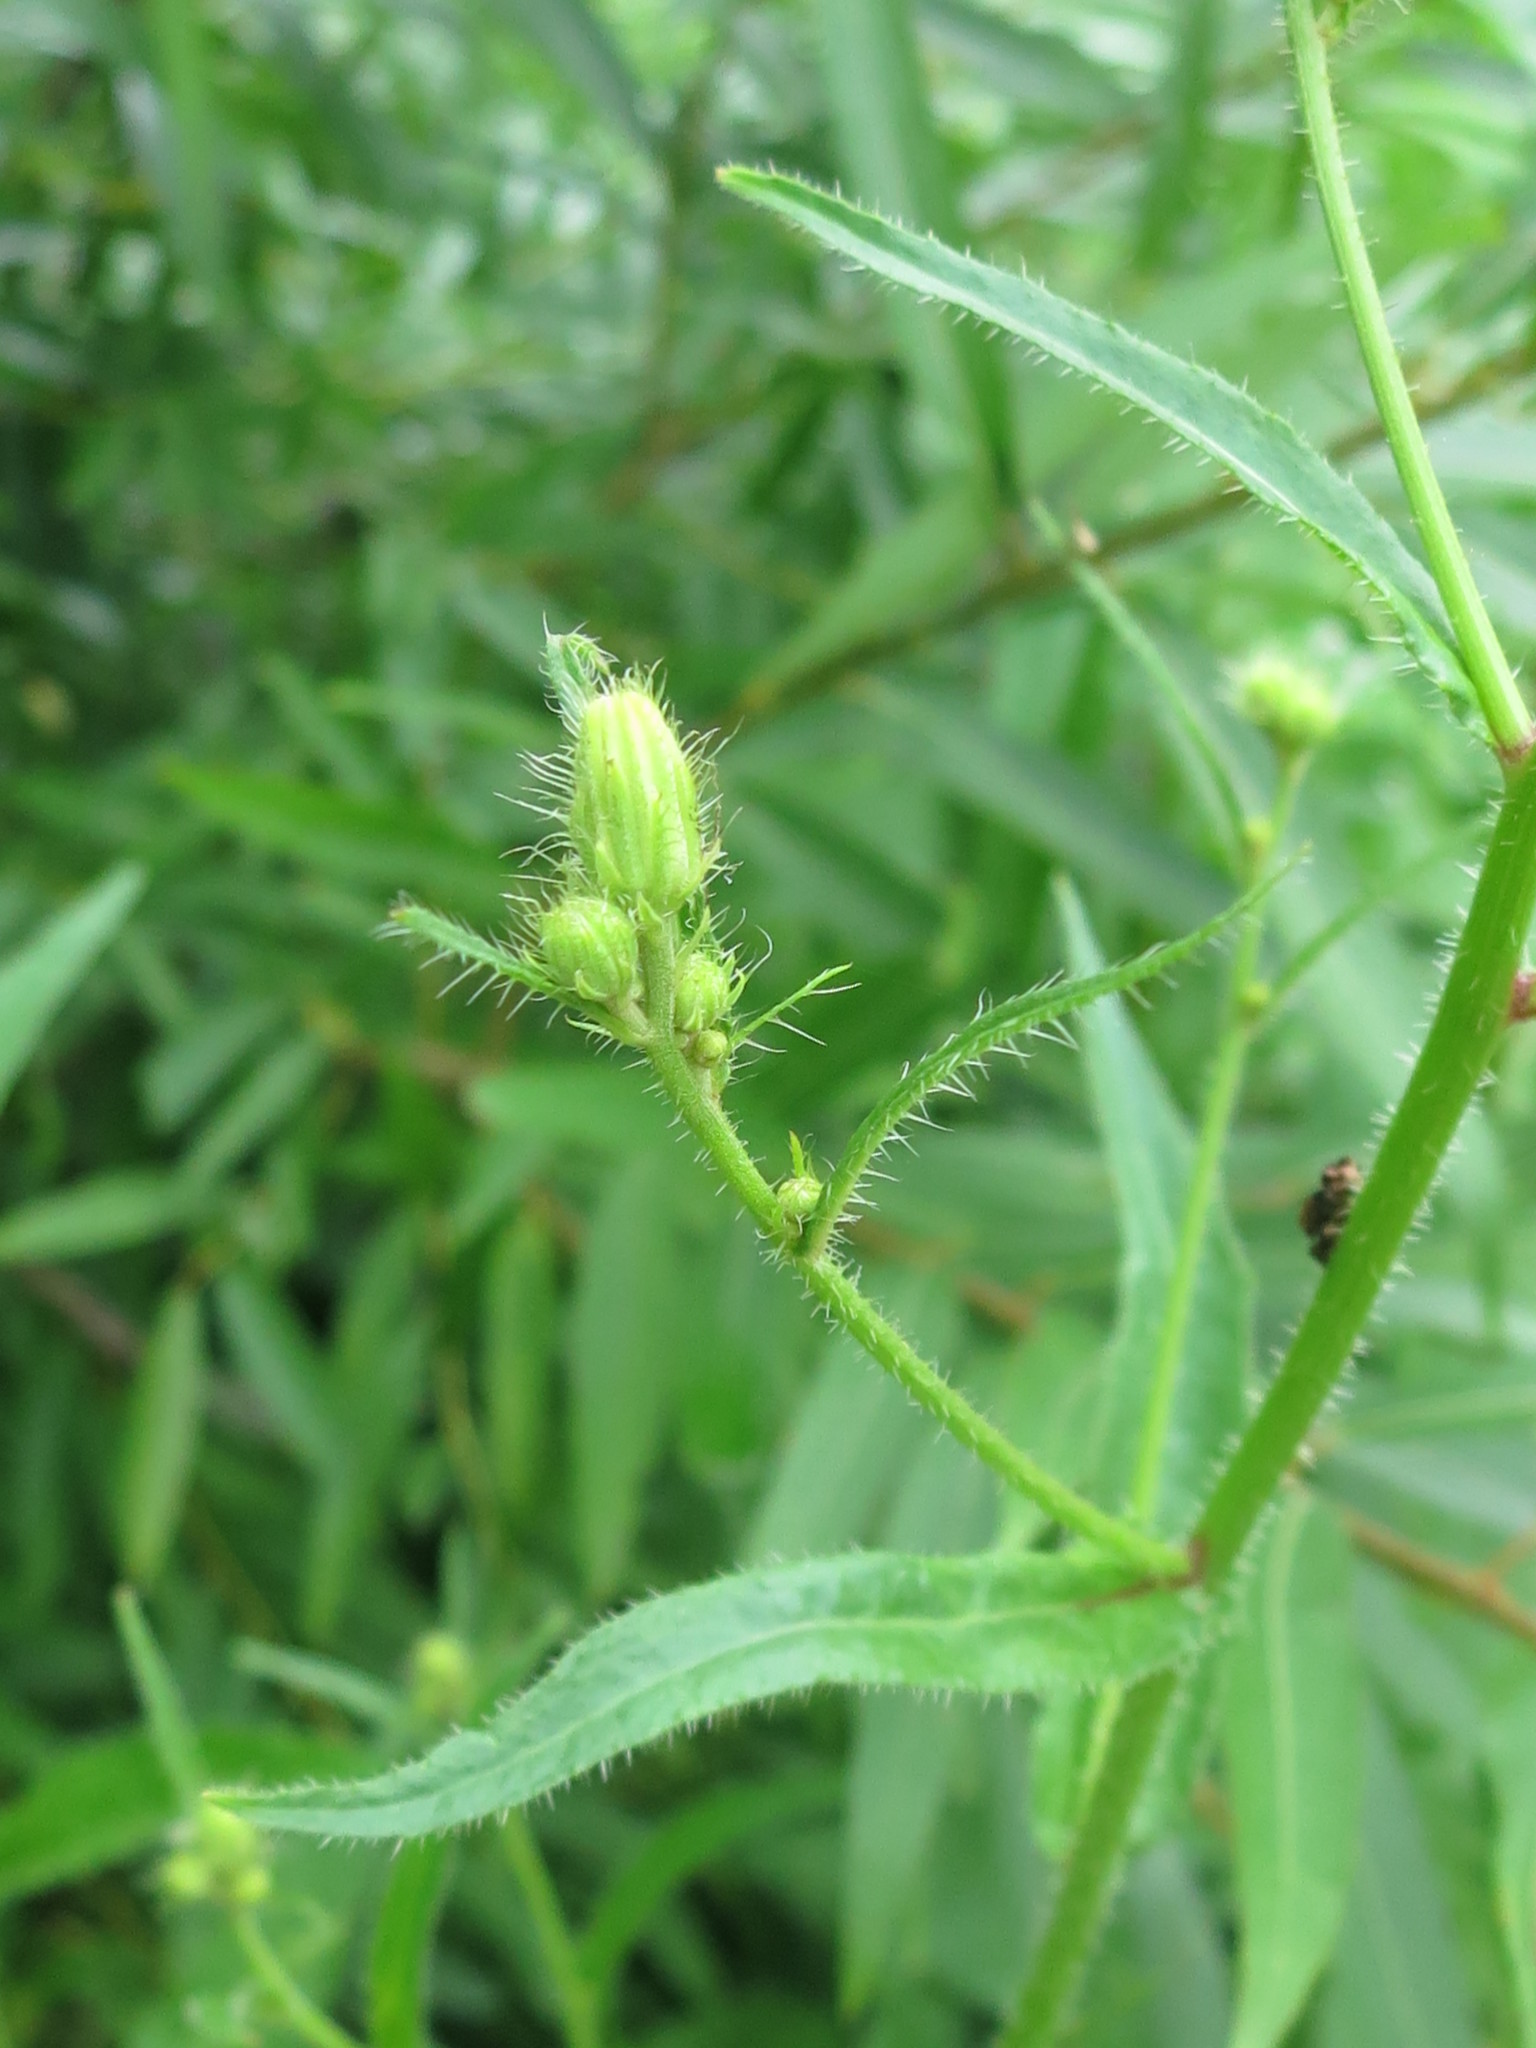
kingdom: Plantae
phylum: Tracheophyta
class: Magnoliopsida
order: Asterales
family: Asteraceae
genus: Picris
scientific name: Picris japonica
